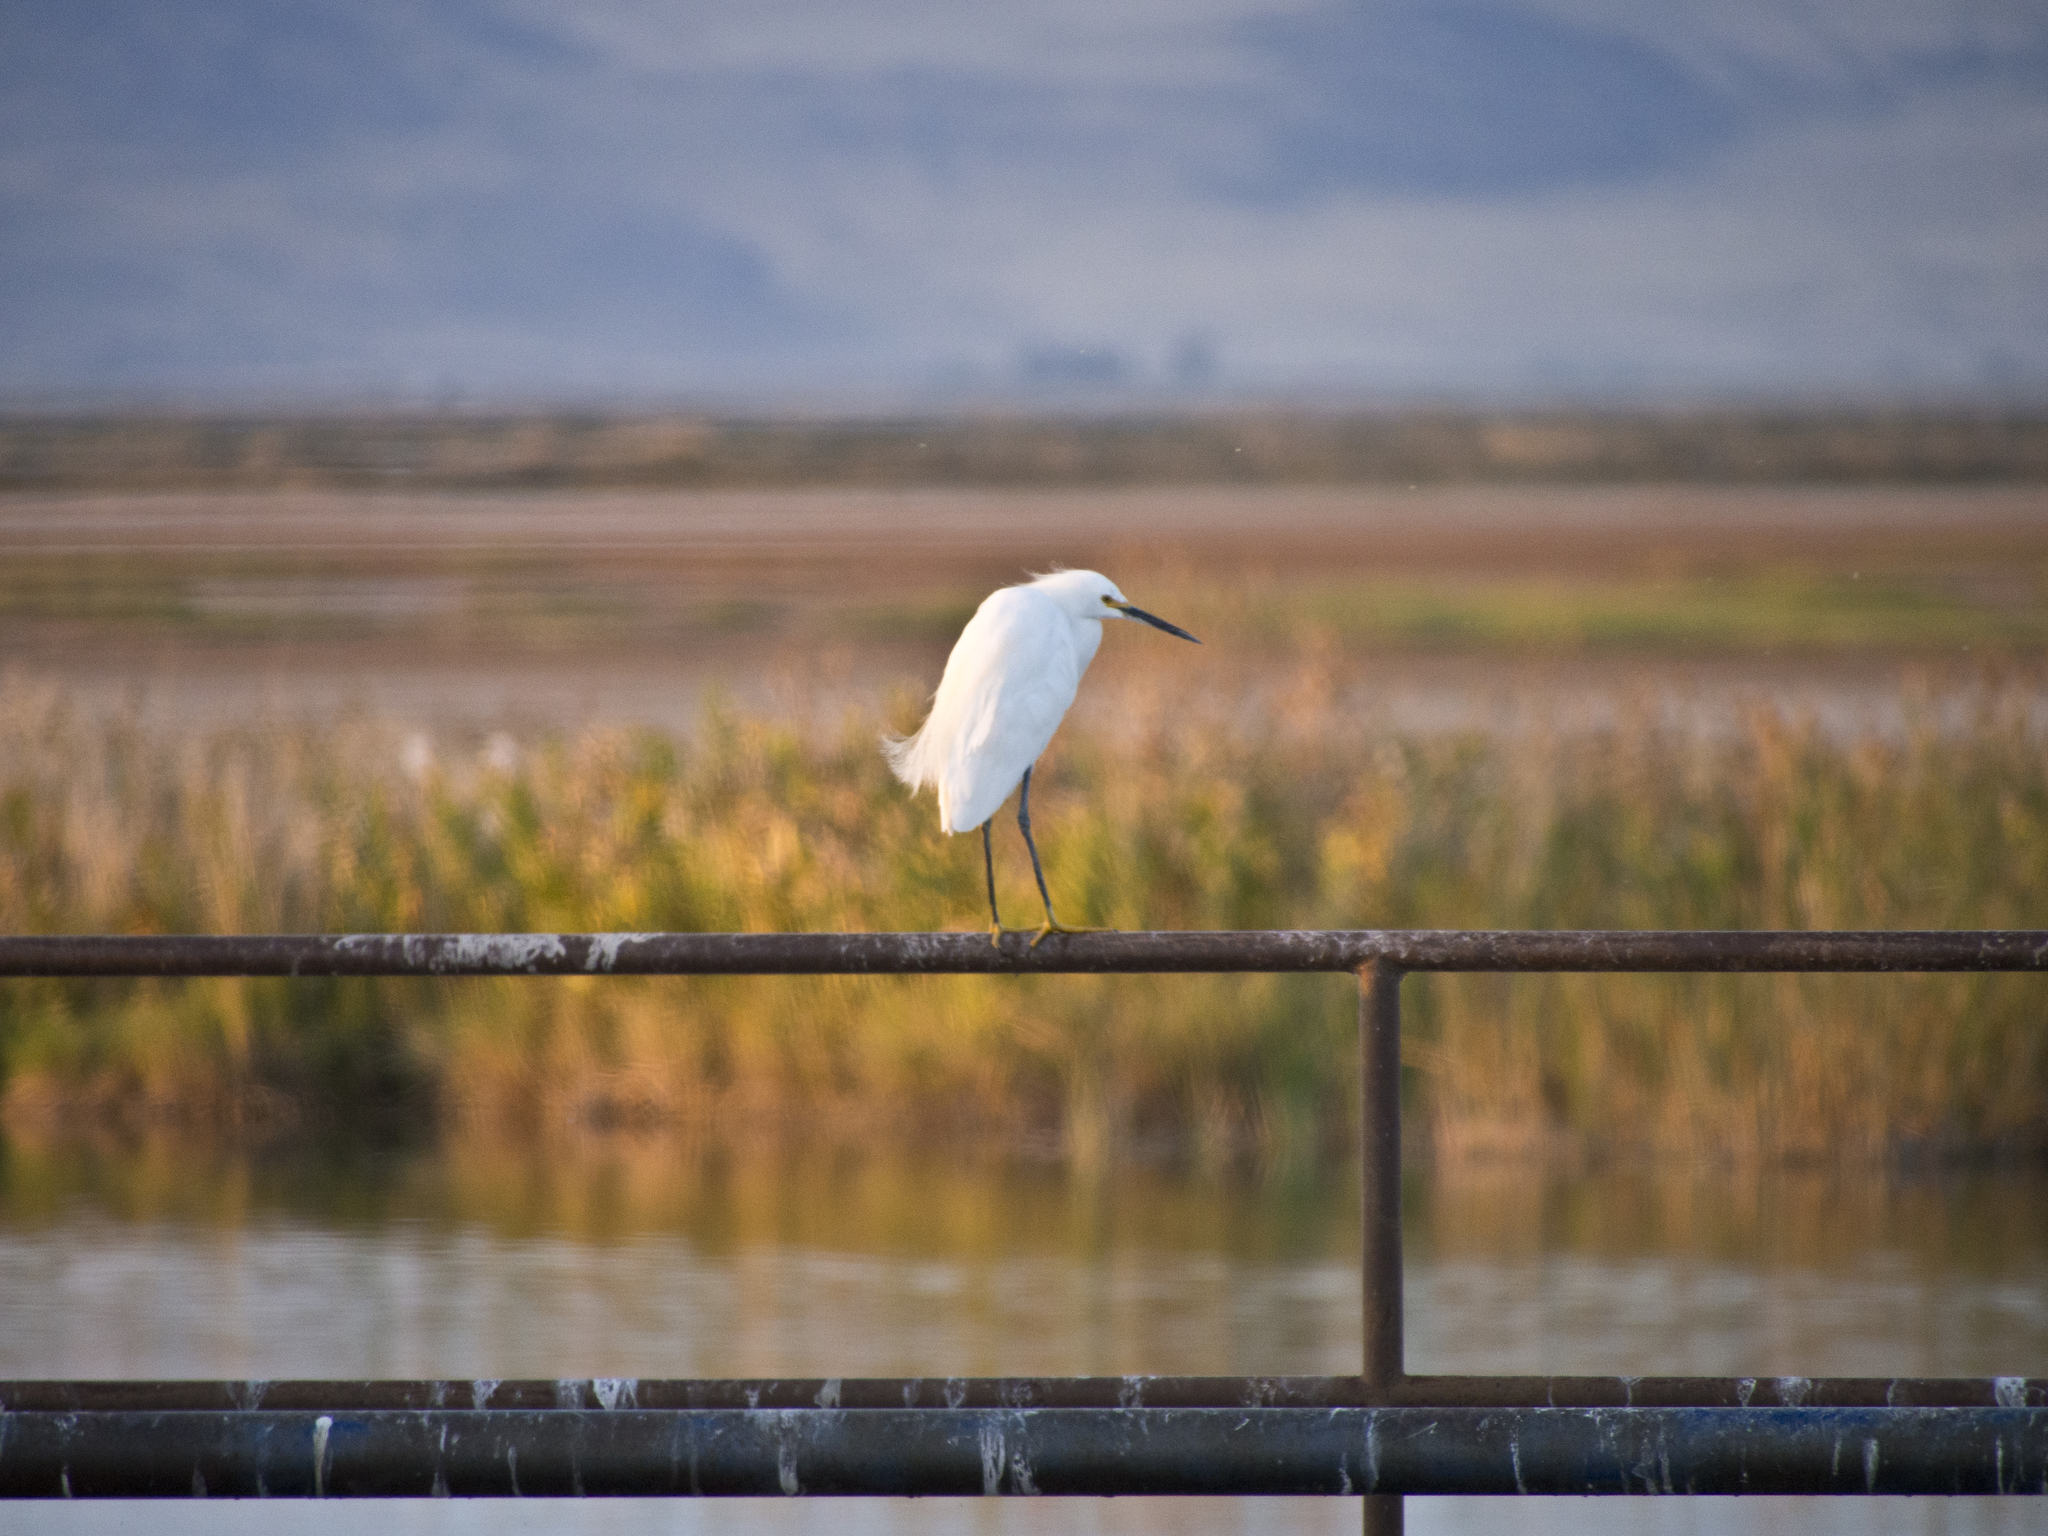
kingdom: Animalia
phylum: Chordata
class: Aves
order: Pelecaniformes
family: Ardeidae
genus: Egretta
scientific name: Egretta thula
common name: Snowy egret
